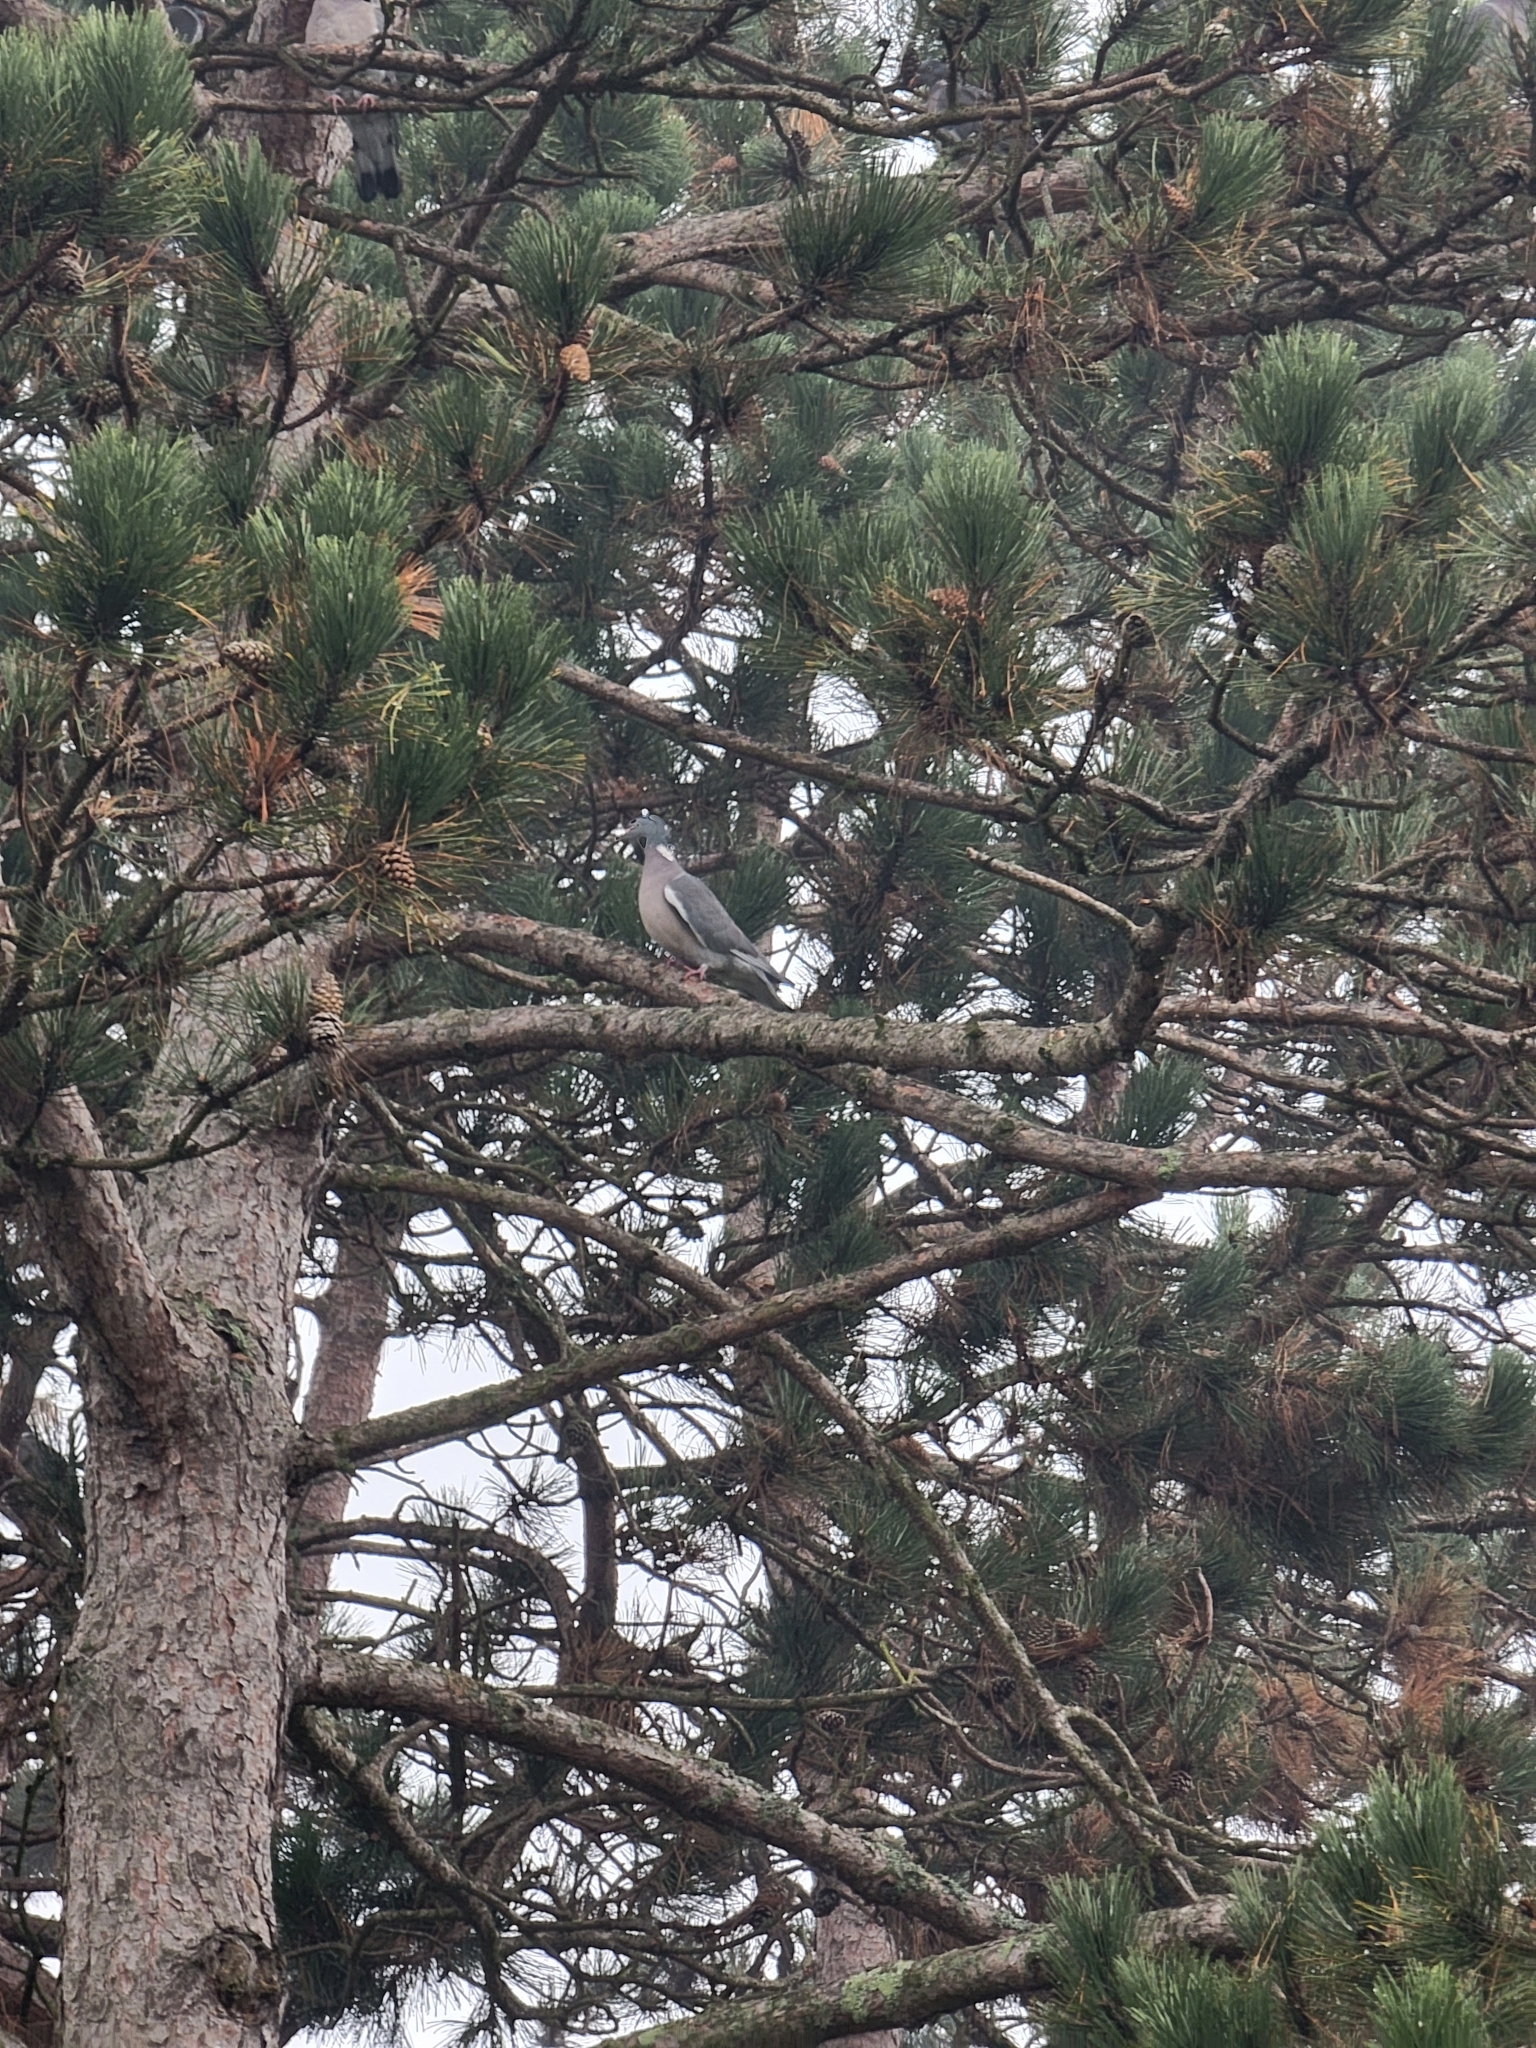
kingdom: Animalia
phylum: Chordata
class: Aves
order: Columbiformes
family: Columbidae
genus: Columba
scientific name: Columba palumbus
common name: Common wood pigeon
